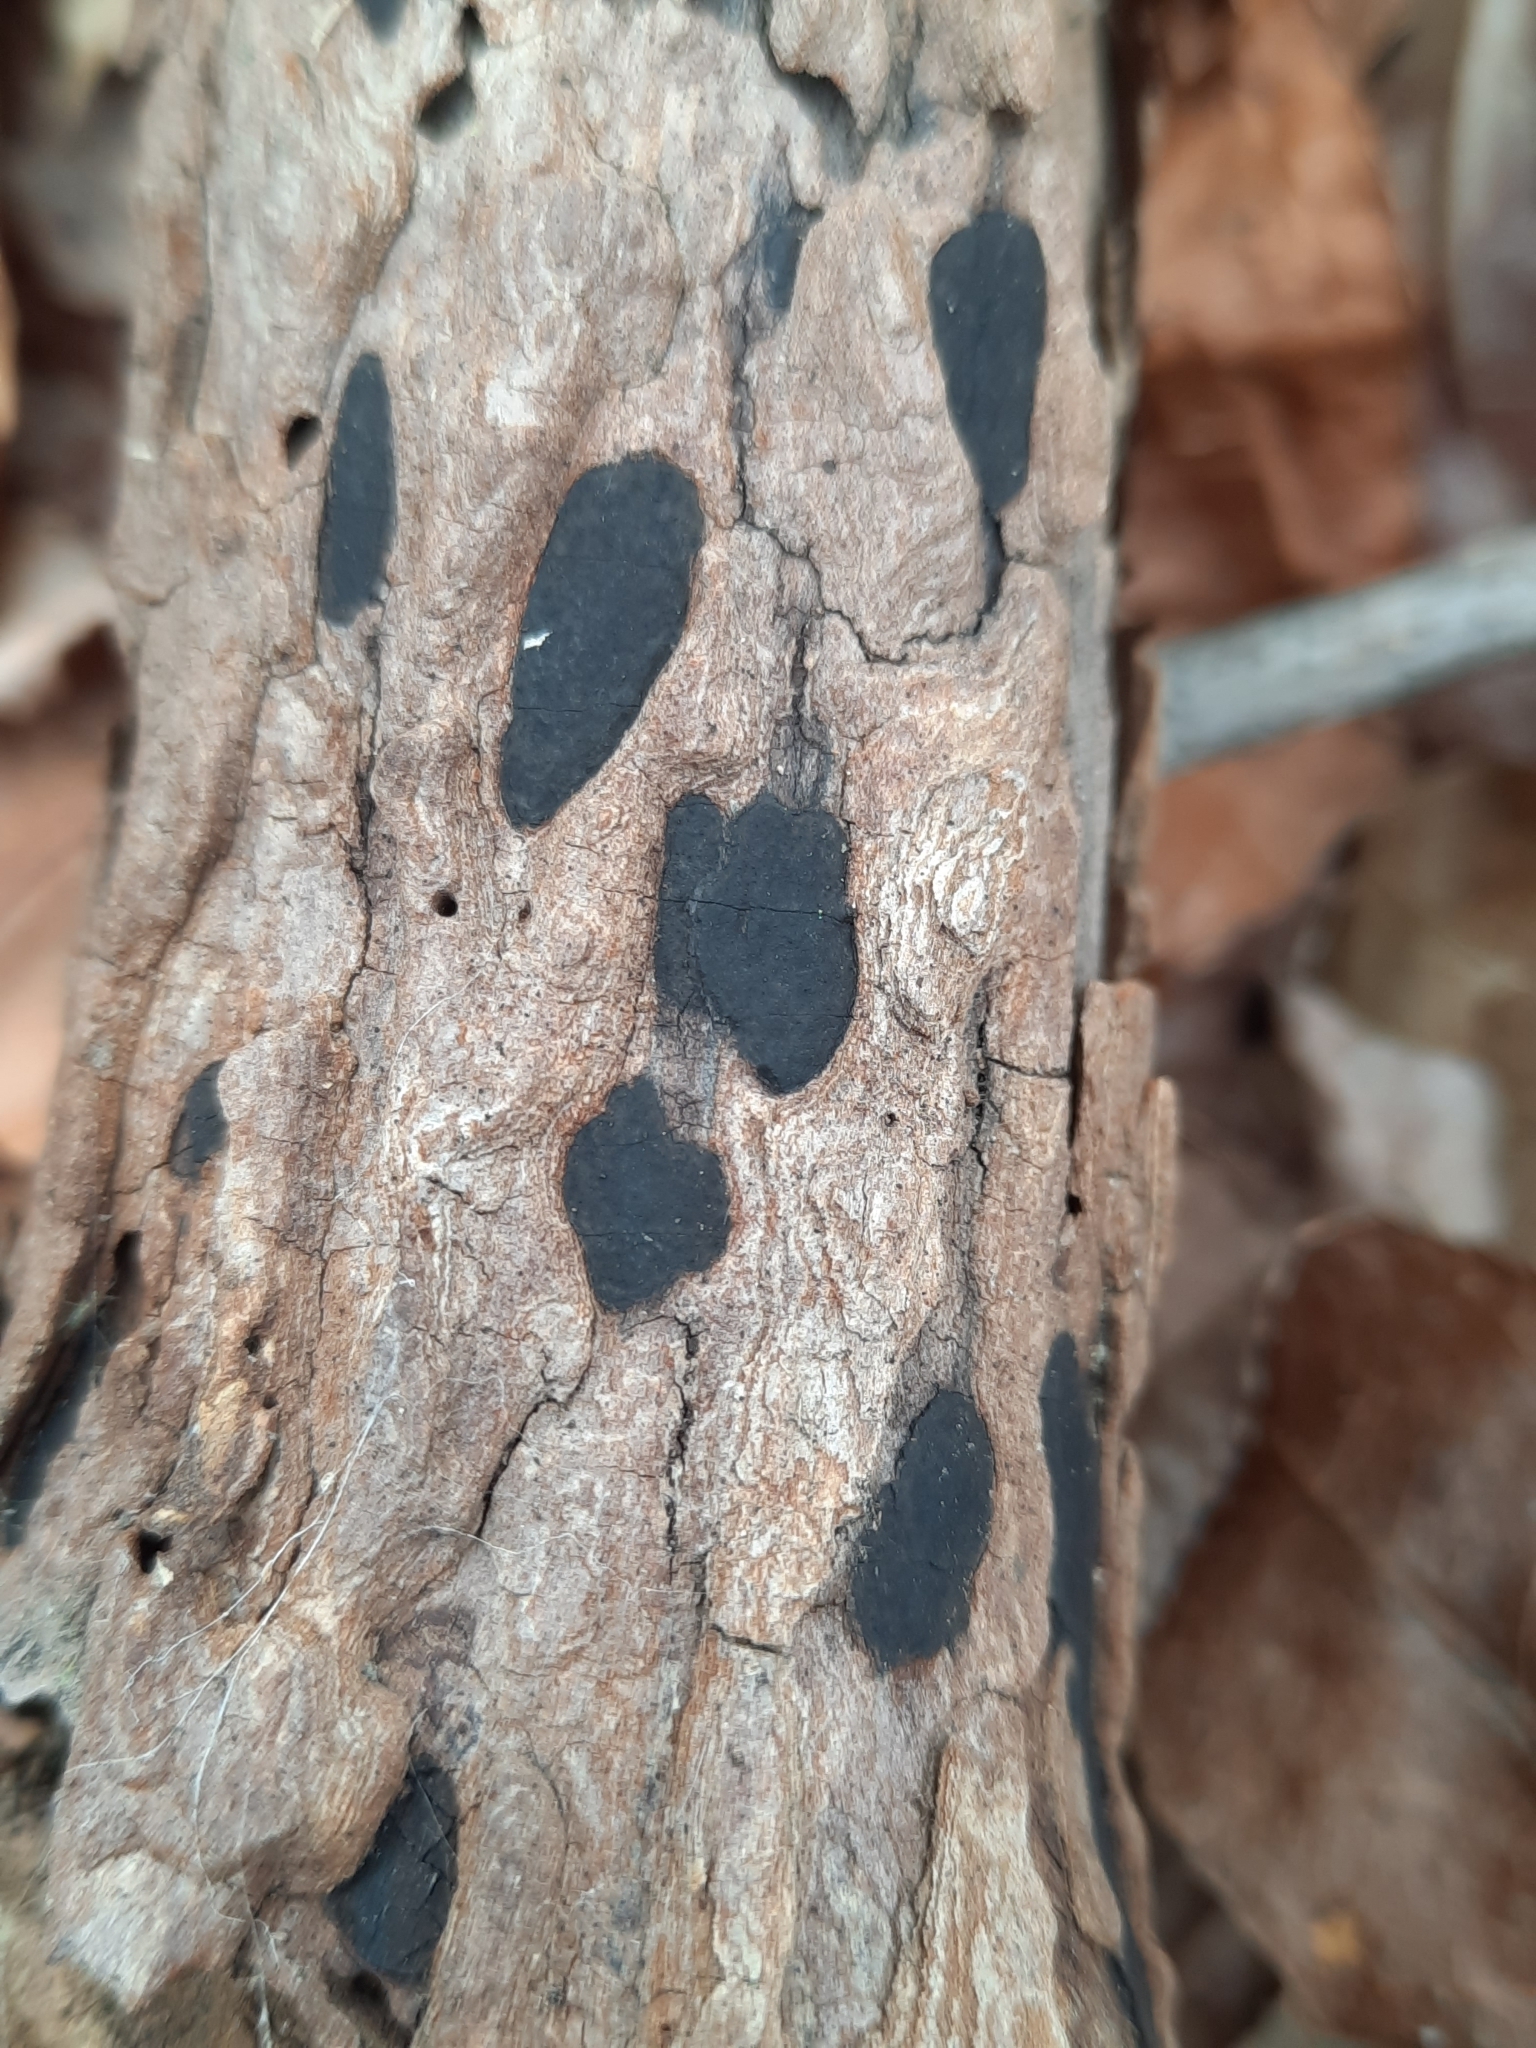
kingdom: Fungi
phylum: Ascomycota
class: Sordariomycetes
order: Xylariales
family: Xylariaceae
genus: Whalleya
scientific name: Whalleya microplaca
